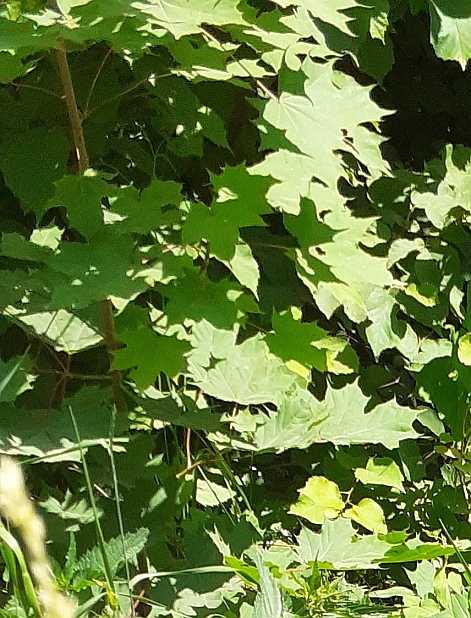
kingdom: Plantae
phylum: Tracheophyta
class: Magnoliopsida
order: Sapindales
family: Sapindaceae
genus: Acer
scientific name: Acer platanoides
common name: Norway maple
